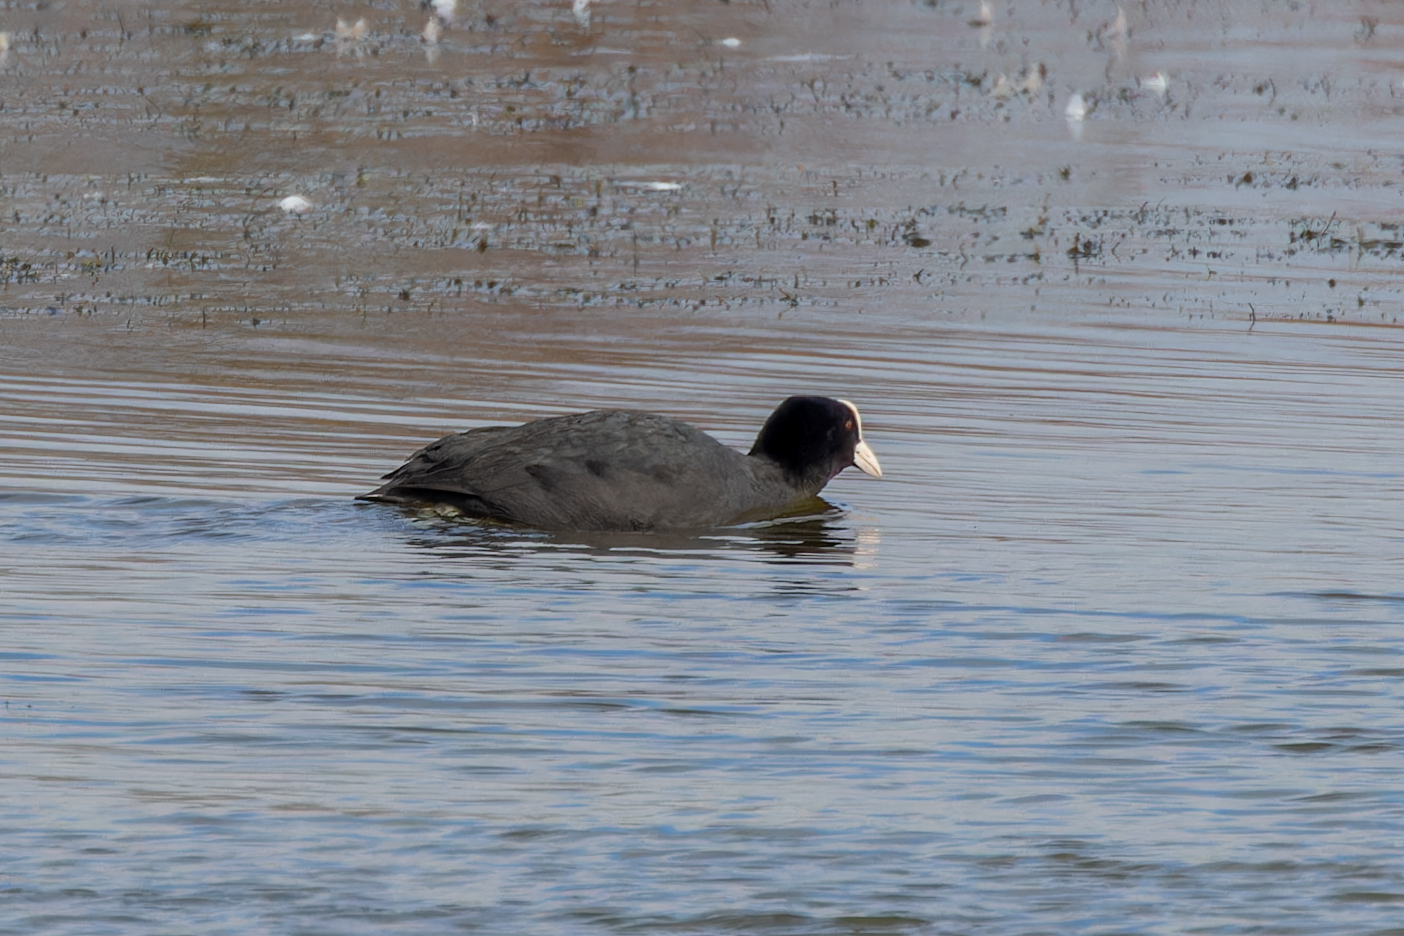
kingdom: Animalia
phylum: Chordata
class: Aves
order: Gruiformes
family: Rallidae
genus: Fulica
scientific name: Fulica atra
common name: Eurasian coot
